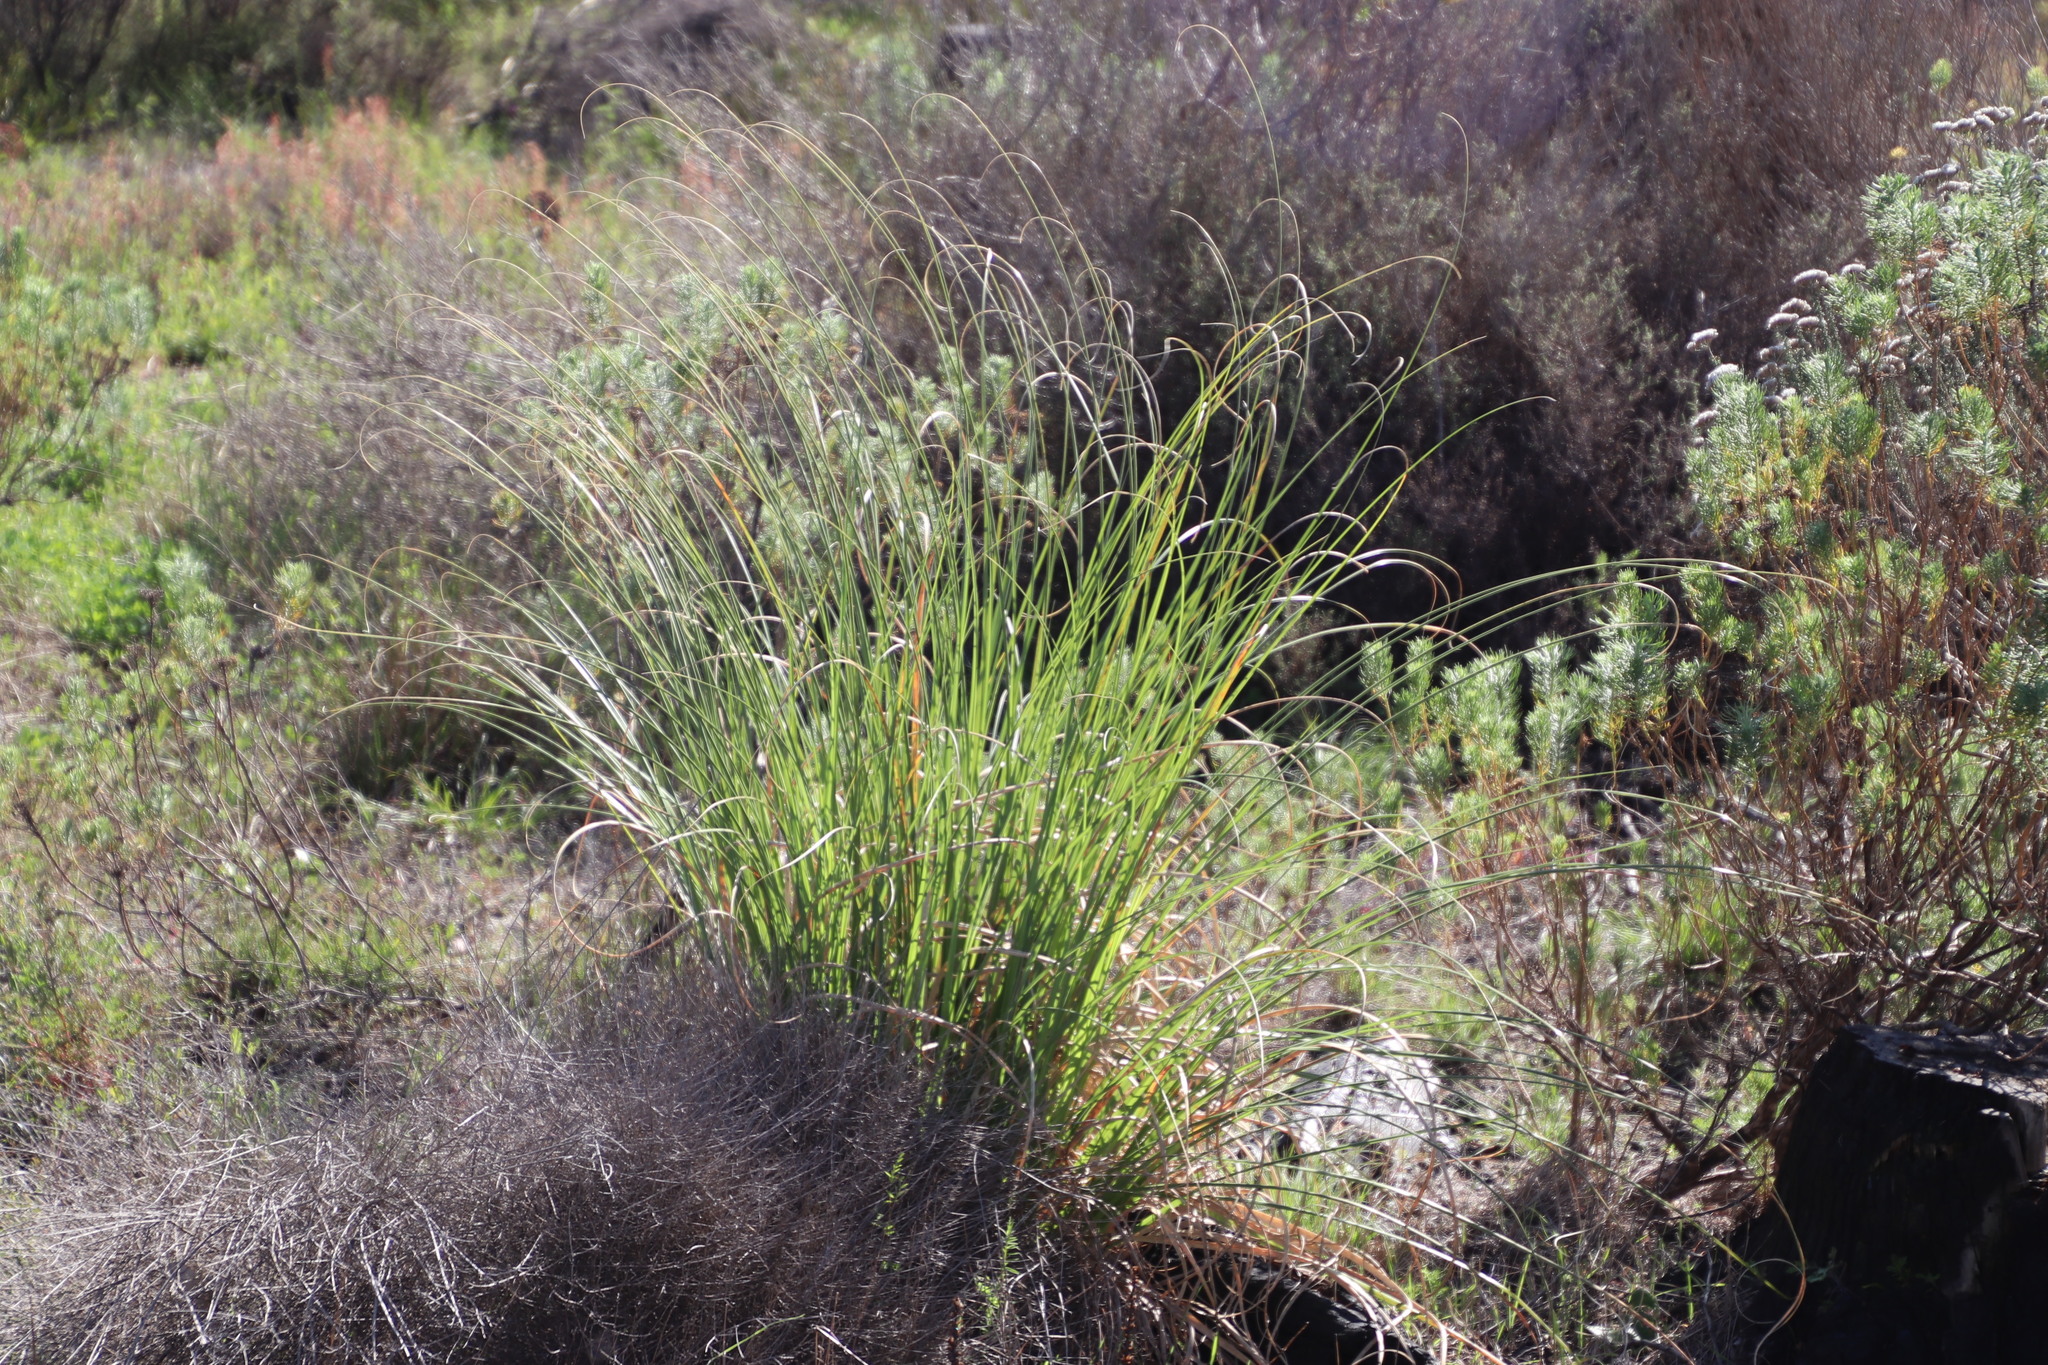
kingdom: Plantae
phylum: Tracheophyta
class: Liliopsida
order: Poales
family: Poaceae
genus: Cortaderia
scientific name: Cortaderia selloana
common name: Uruguayan pampas grass
